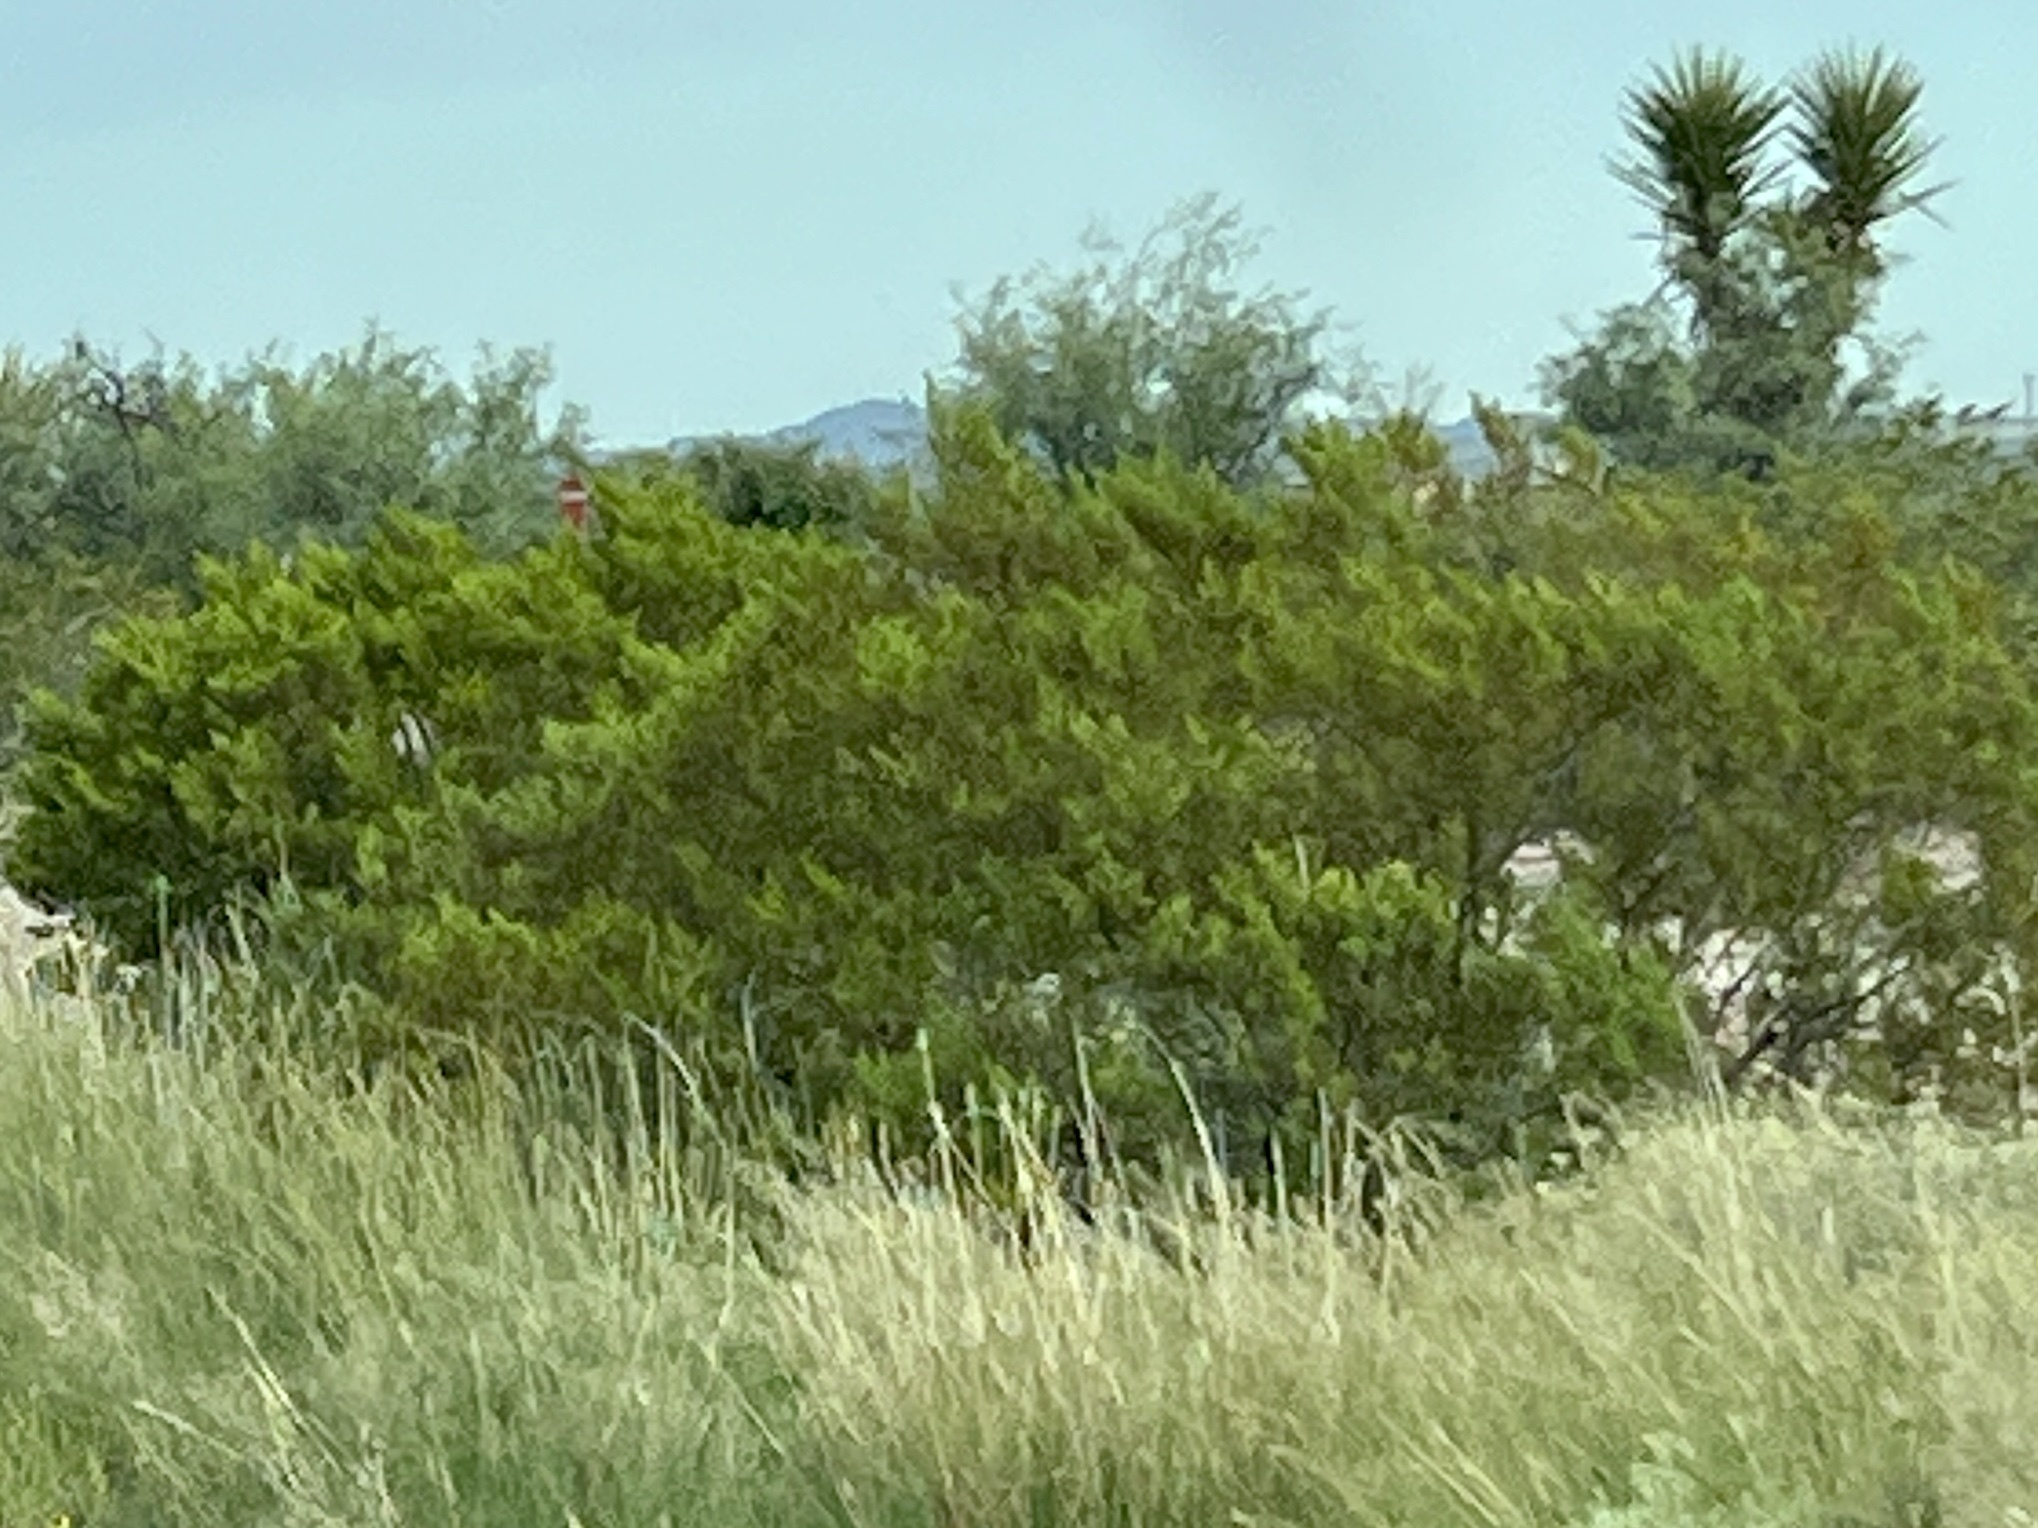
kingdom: Plantae
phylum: Tracheophyta
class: Magnoliopsida
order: Zygophyllales
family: Zygophyllaceae
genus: Larrea
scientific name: Larrea tridentata
